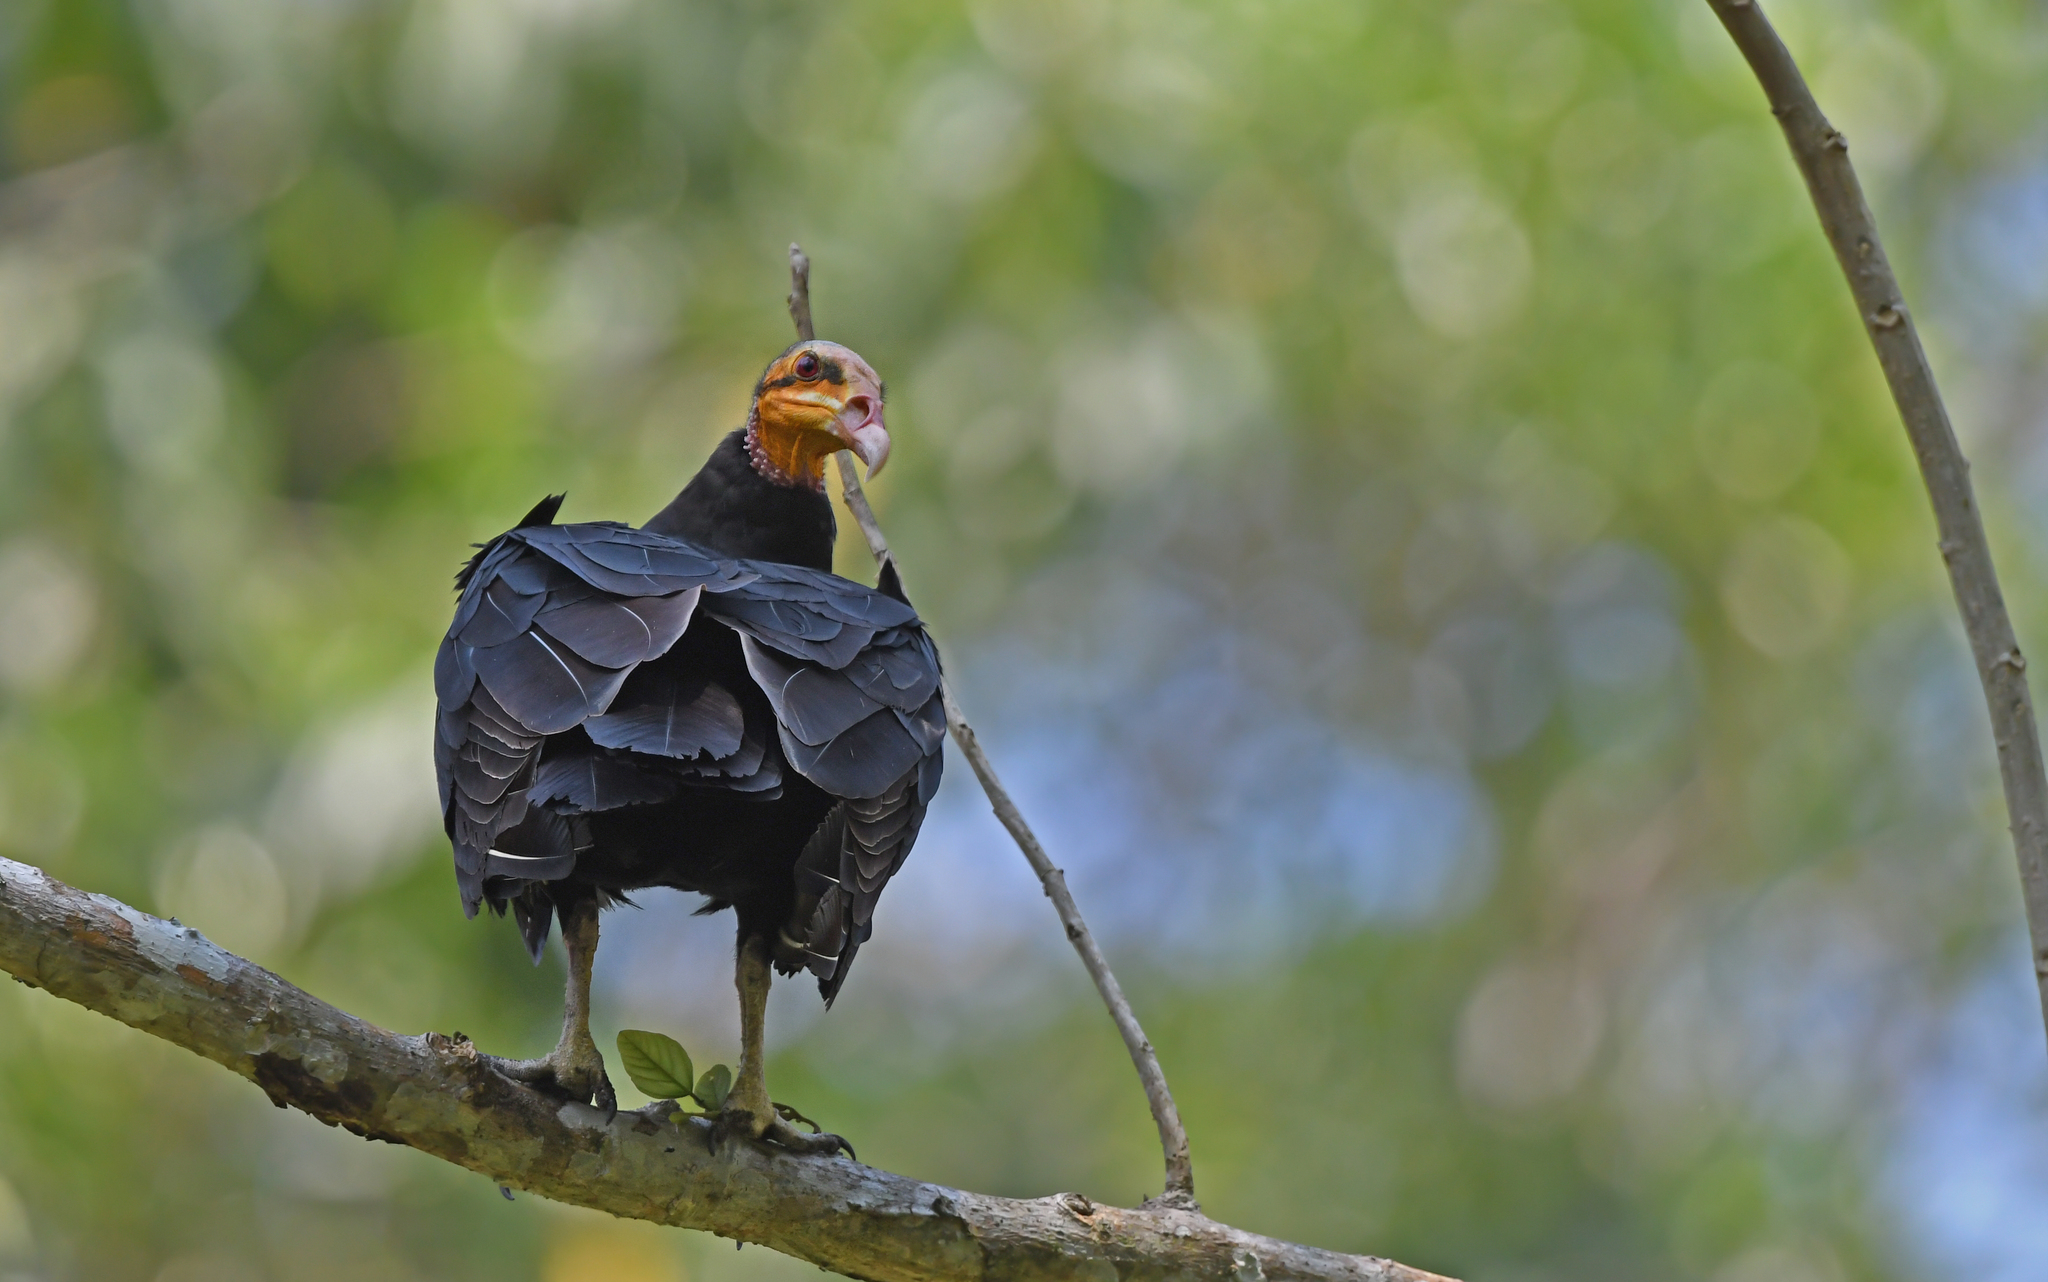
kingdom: Animalia
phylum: Chordata
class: Aves
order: Accipitriformes
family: Cathartidae
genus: Cathartes
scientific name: Cathartes melambrotus
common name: Greater yellow-headed vulture
